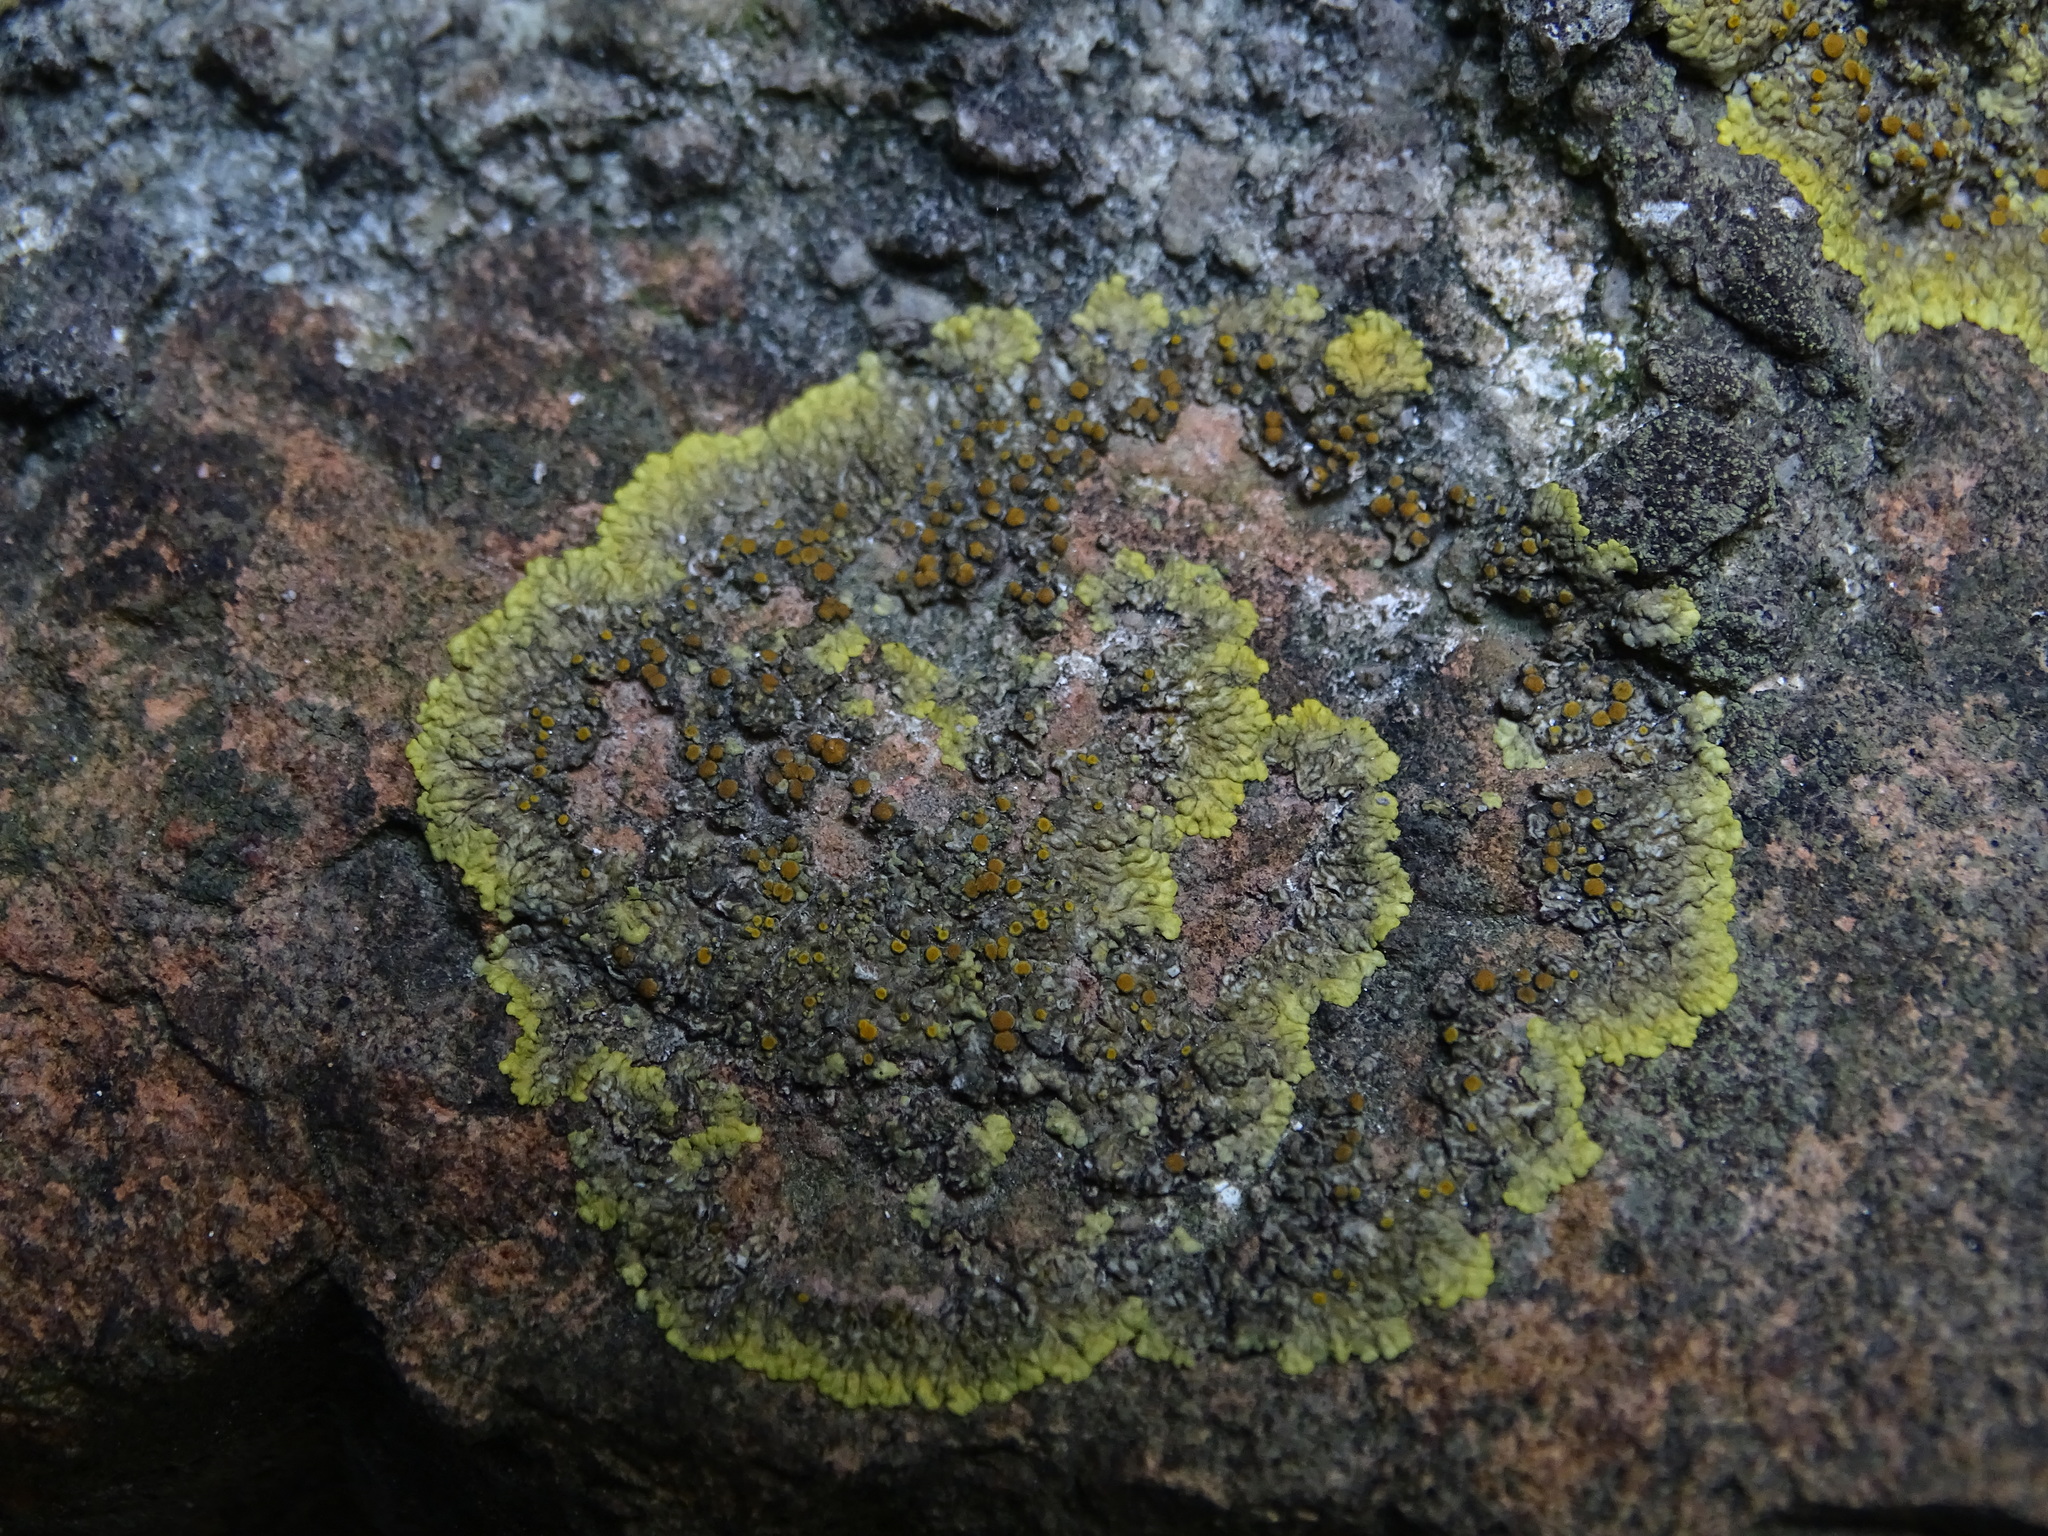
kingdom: Fungi
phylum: Ascomycota
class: Lecanoromycetes
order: Teloschistales
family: Teloschistaceae
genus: Xanthoria
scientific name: Xanthoria parietina
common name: Common orange lichen
